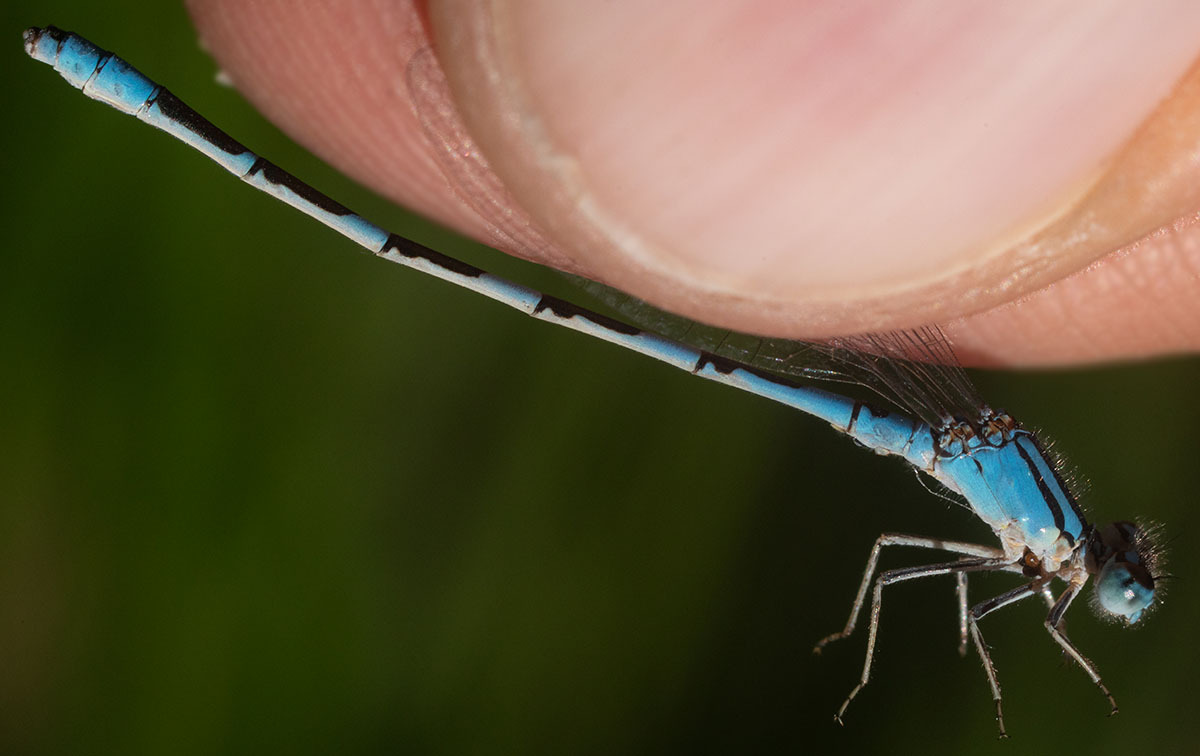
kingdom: Animalia
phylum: Arthropoda
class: Insecta
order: Odonata
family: Coenagrionidae
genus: Enallagma
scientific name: Enallagma carunculatum
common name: Tule bluet
